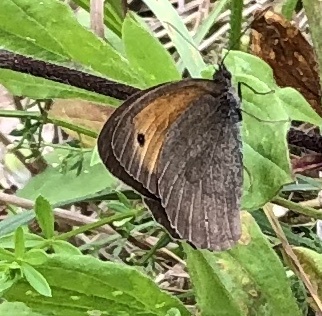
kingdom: Animalia
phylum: Arthropoda
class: Insecta
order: Lepidoptera
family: Nymphalidae
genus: Maniola
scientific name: Maniola jurtina
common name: Meadow brown
